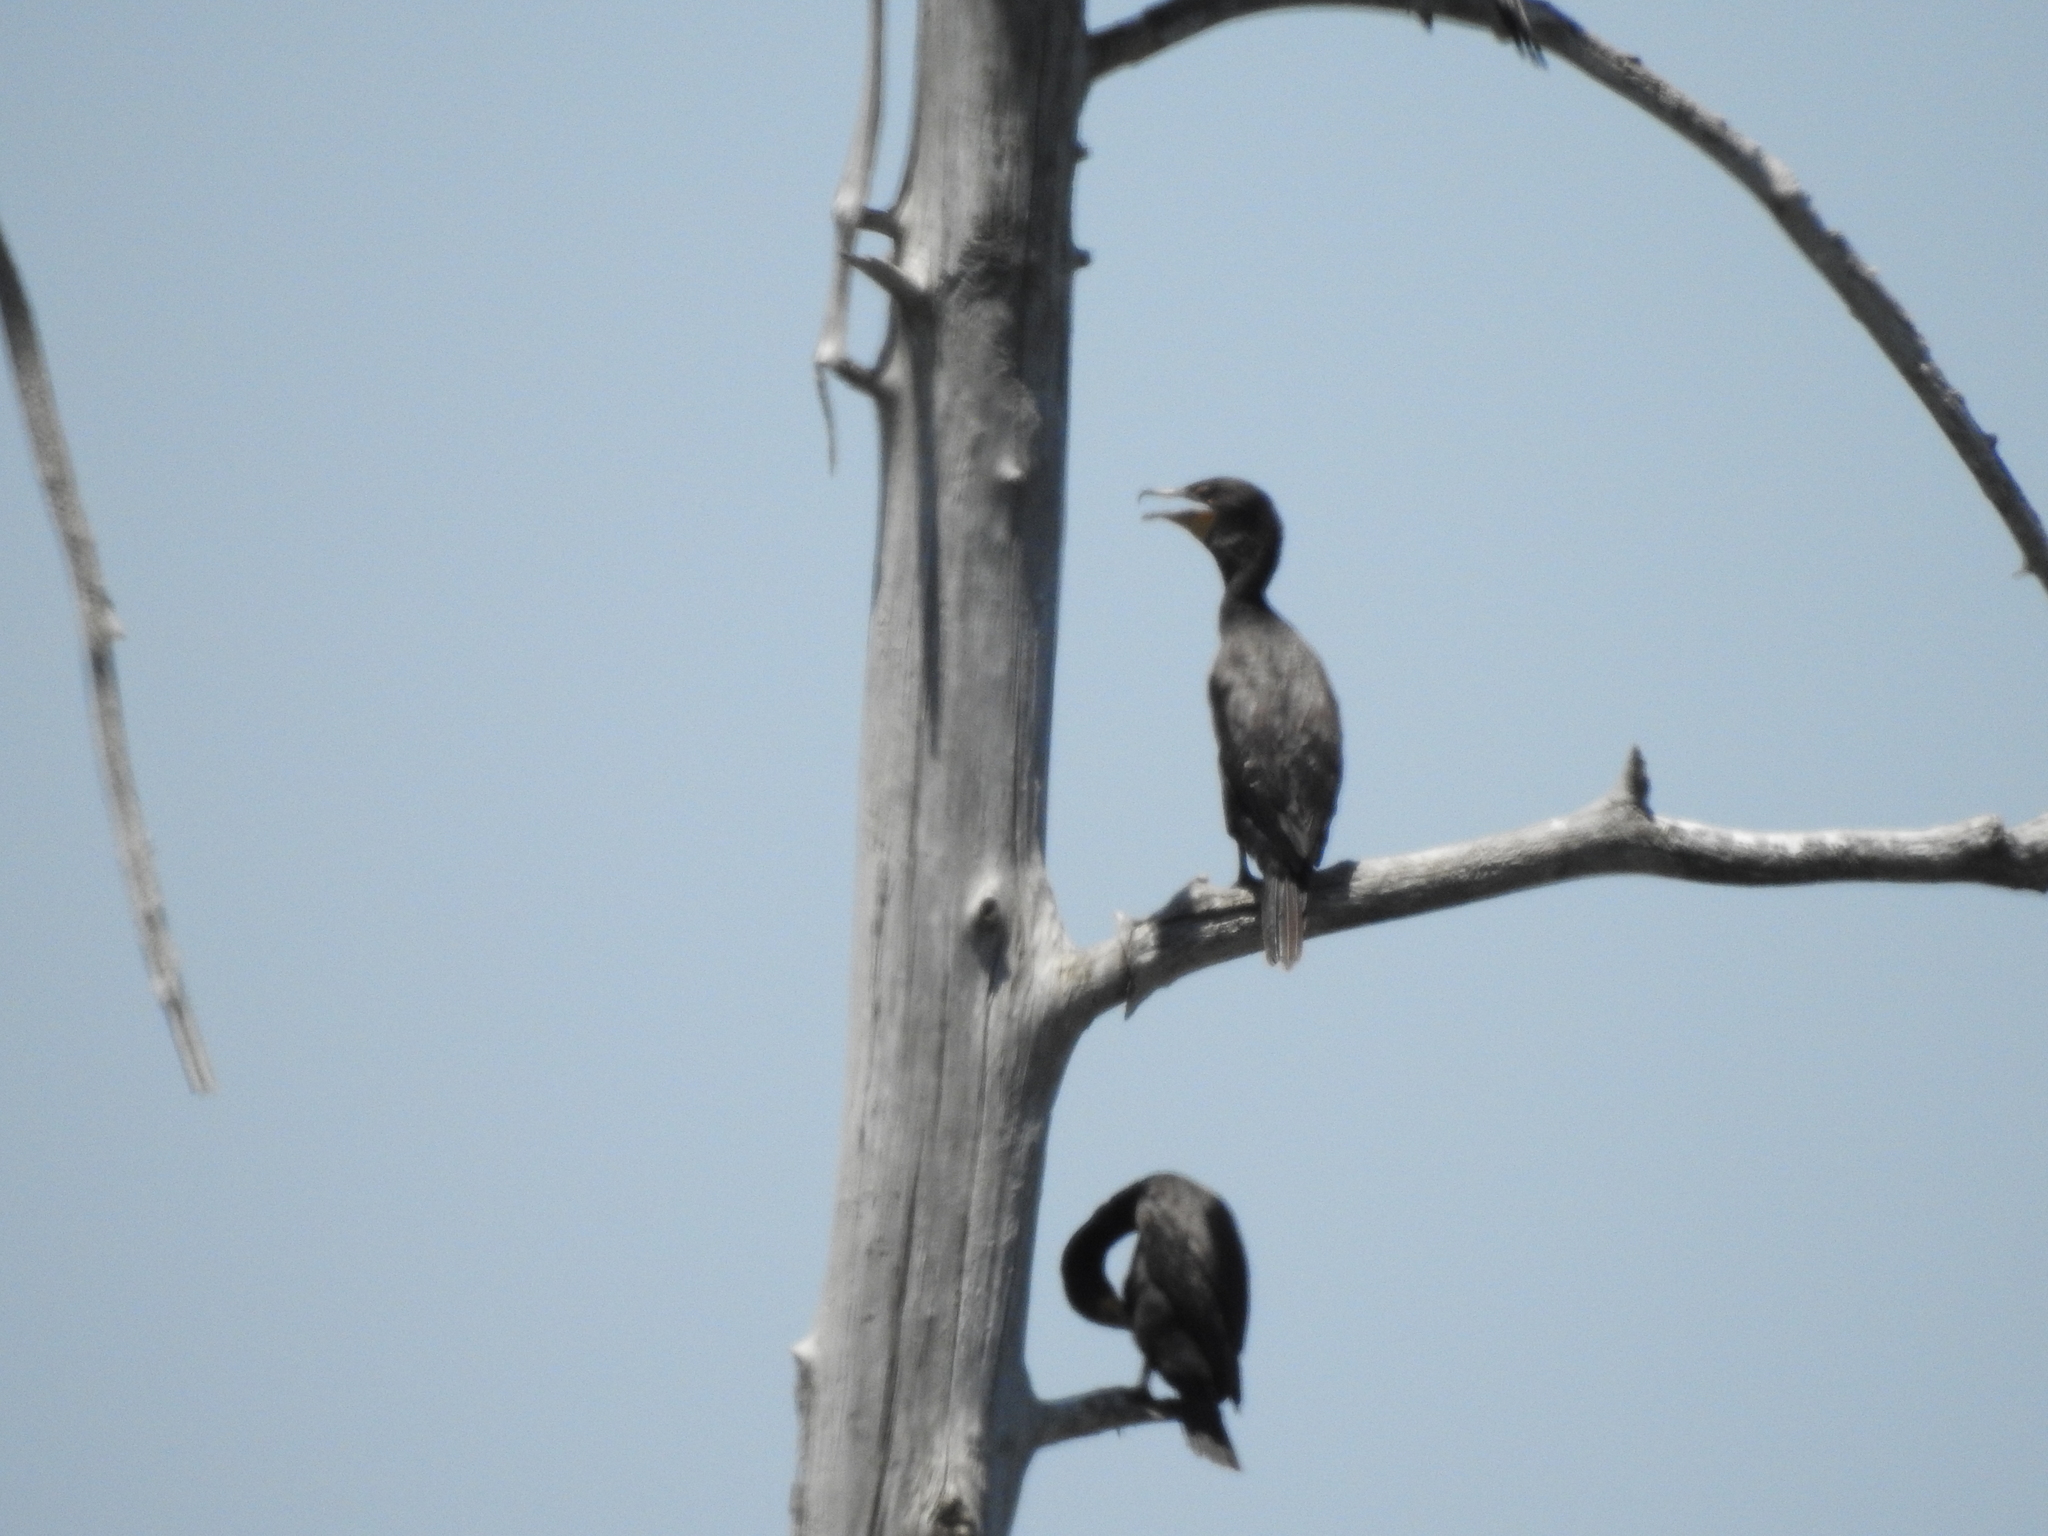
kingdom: Animalia
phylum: Chordata
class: Aves
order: Suliformes
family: Phalacrocoracidae
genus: Phalacrocorax
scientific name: Phalacrocorax auritus
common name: Double-crested cormorant
